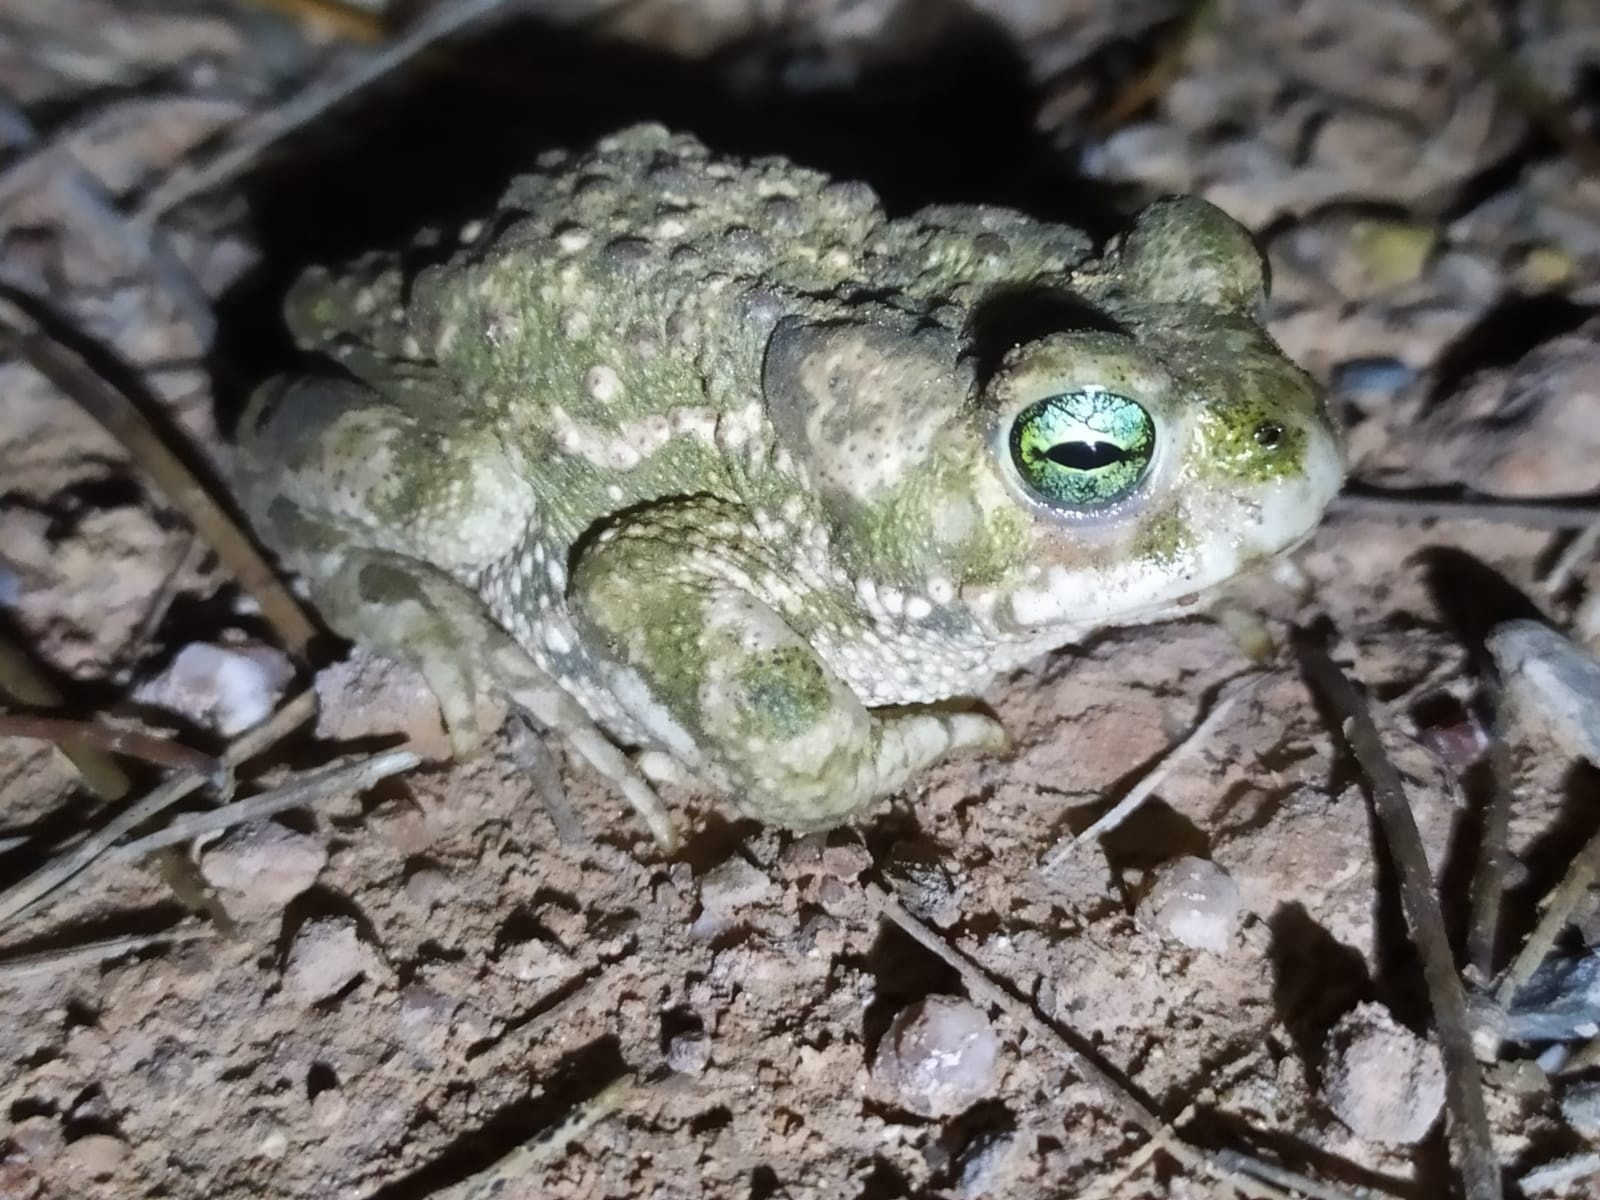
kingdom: Animalia
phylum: Chordata
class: Amphibia
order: Anura
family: Bufonidae
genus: Epidalea
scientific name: Epidalea calamita
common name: Natterjack toad
